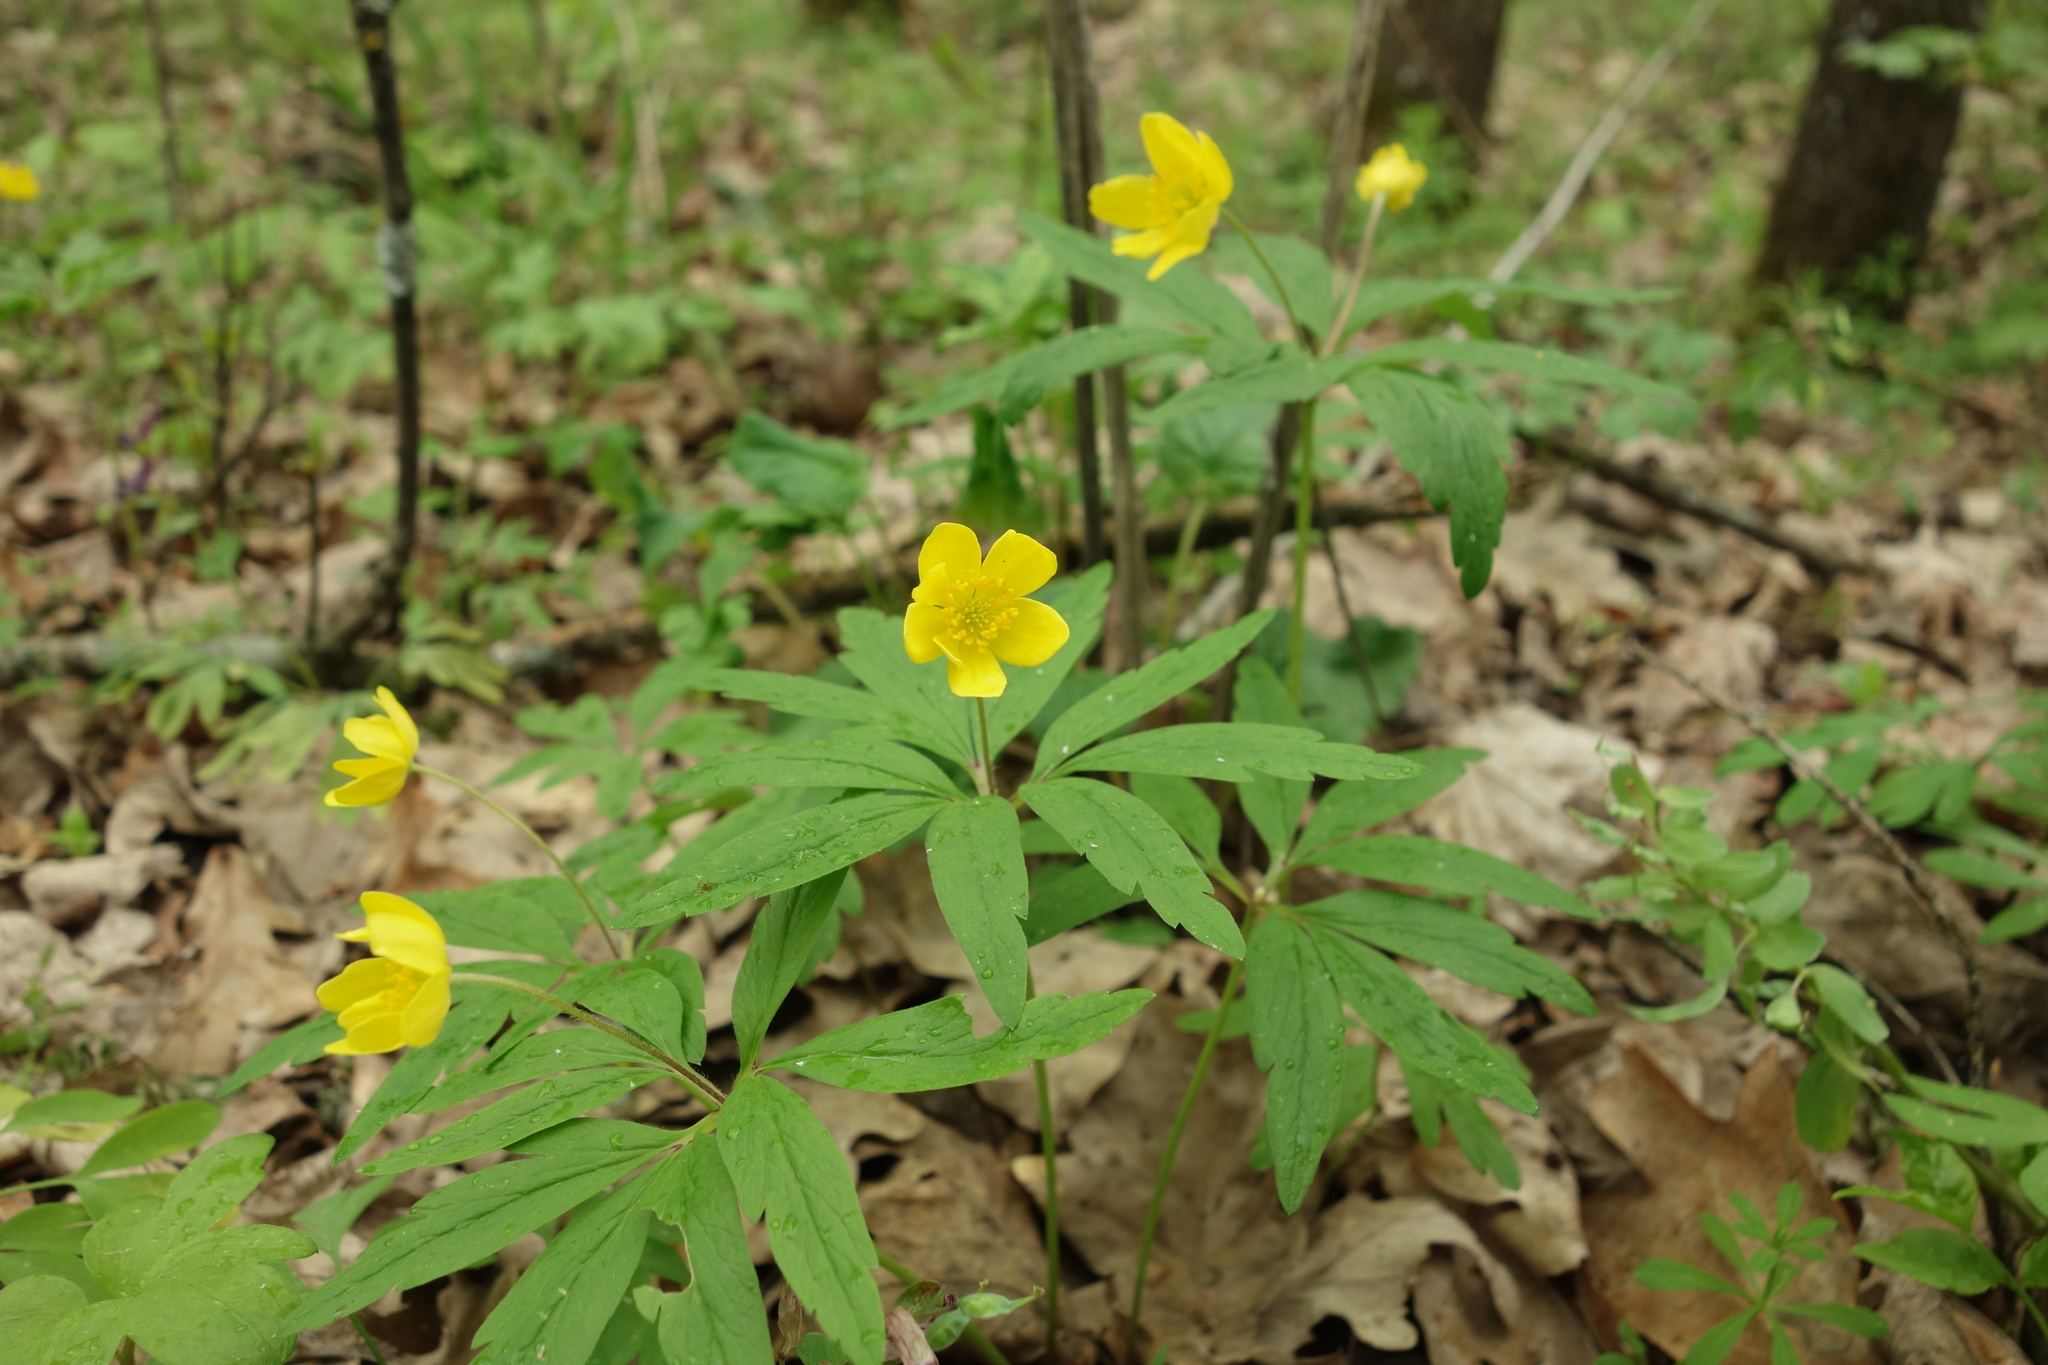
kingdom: Plantae
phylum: Tracheophyta
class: Magnoliopsida
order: Ranunculales
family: Ranunculaceae
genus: Anemone
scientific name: Anemone ranunculoides
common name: Yellow anemone
